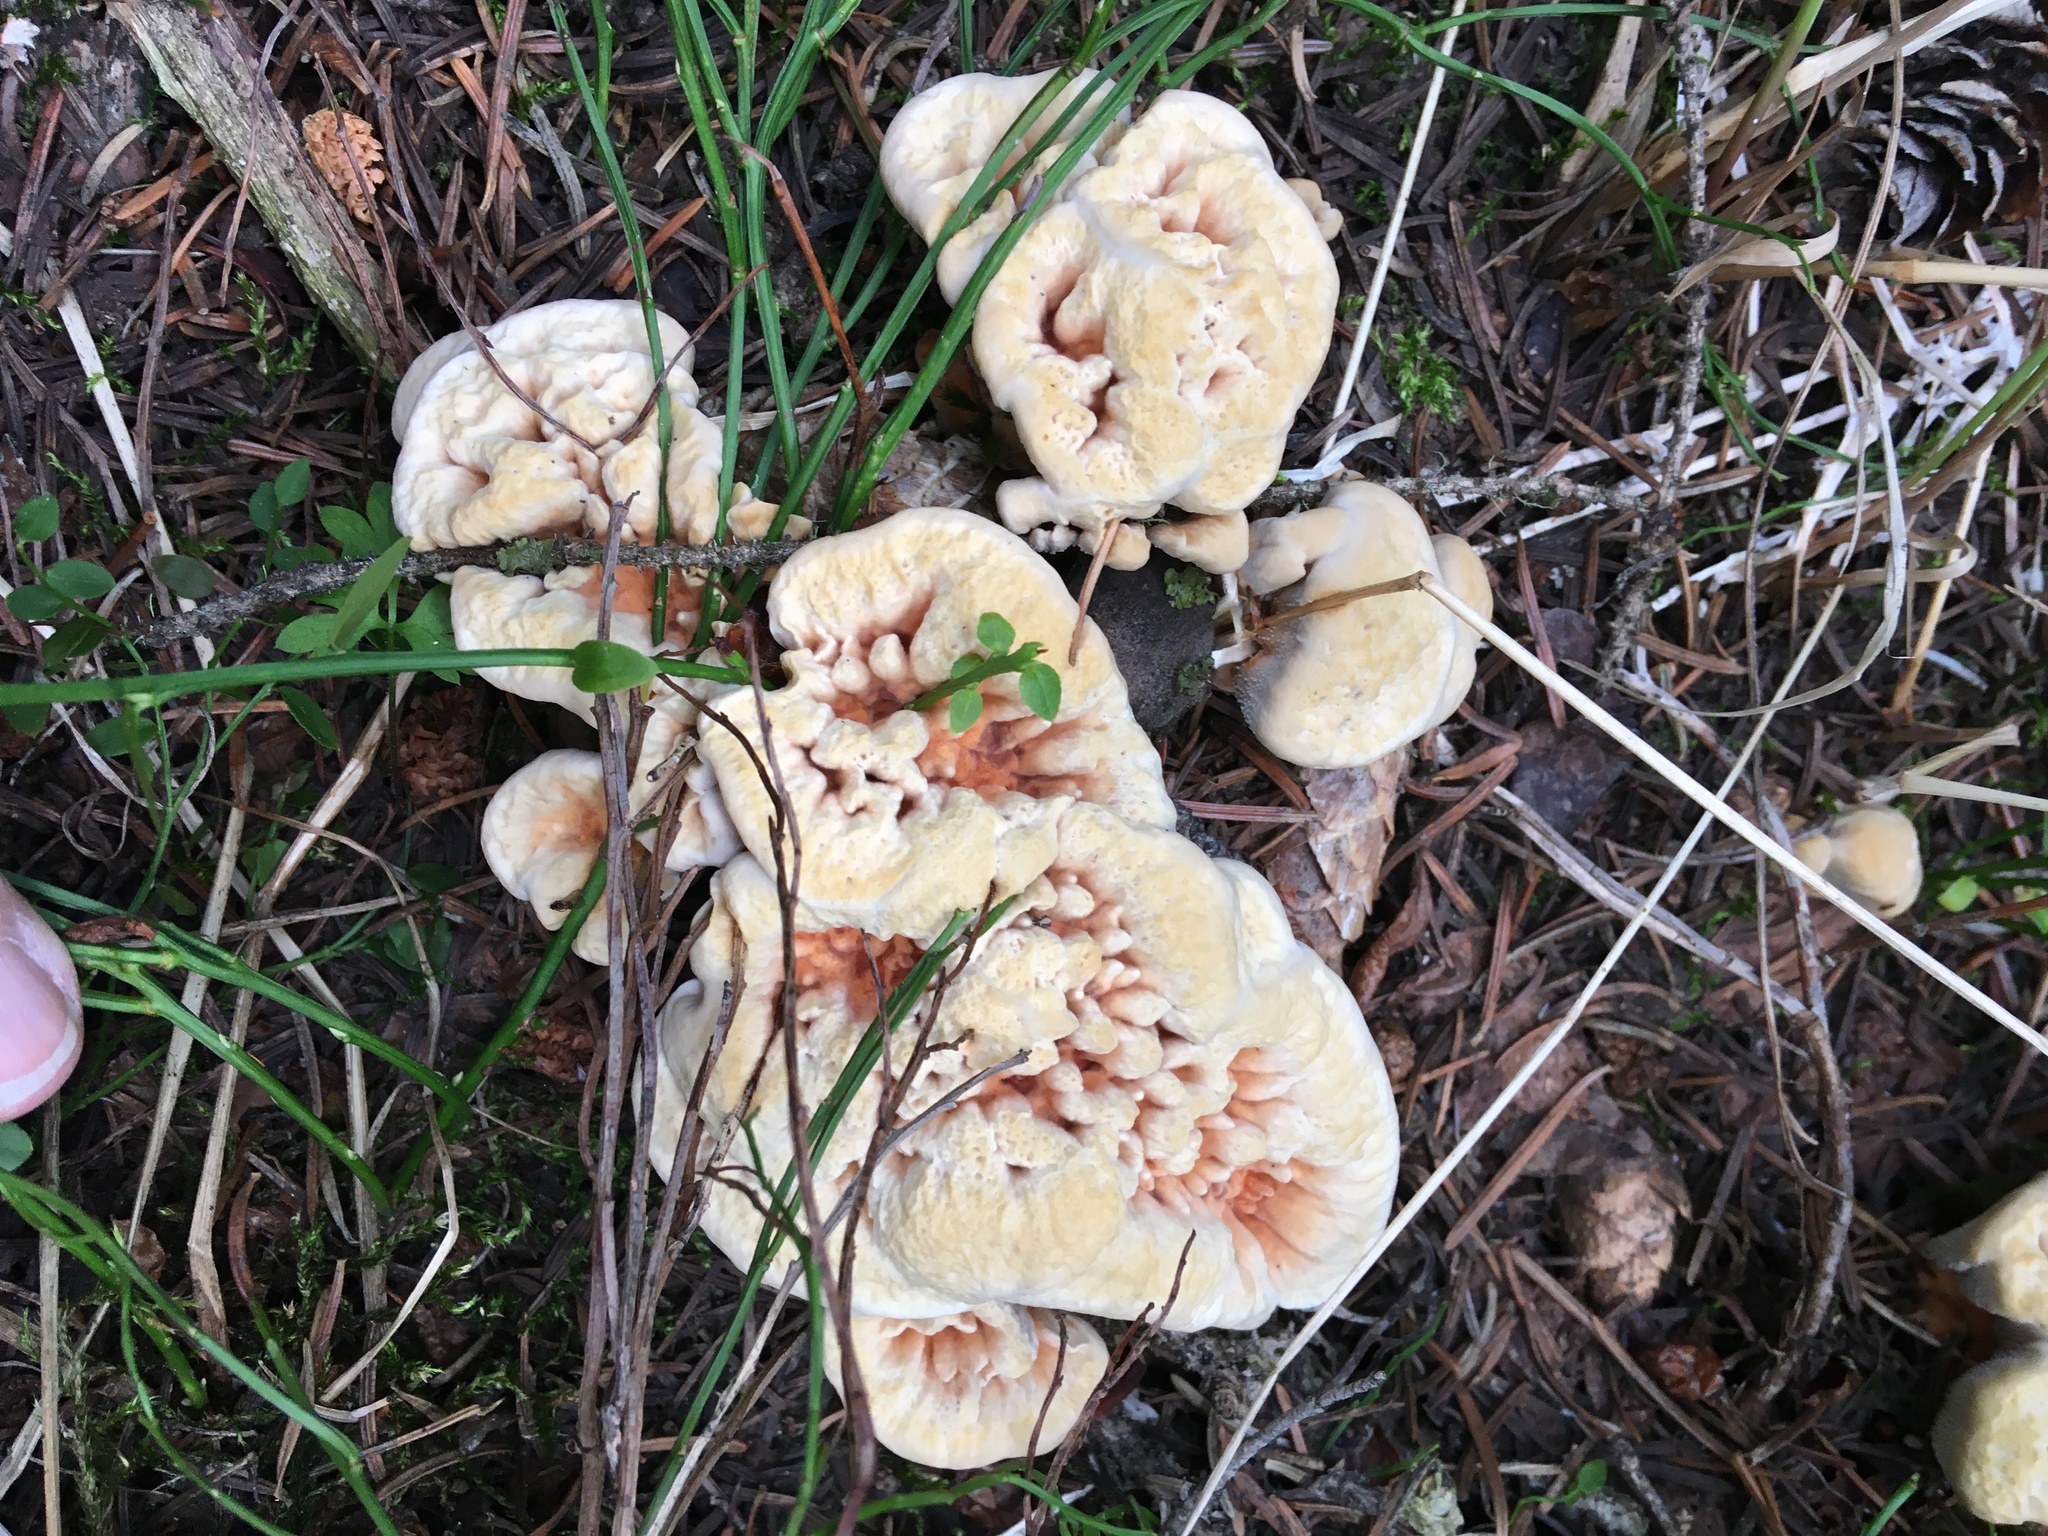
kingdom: Fungi
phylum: Basidiomycota
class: Agaricomycetes
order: Thelephorales
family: Bankeraceae
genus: Hydnellum
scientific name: Hydnellum aurantiacum
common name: Orange tooth
